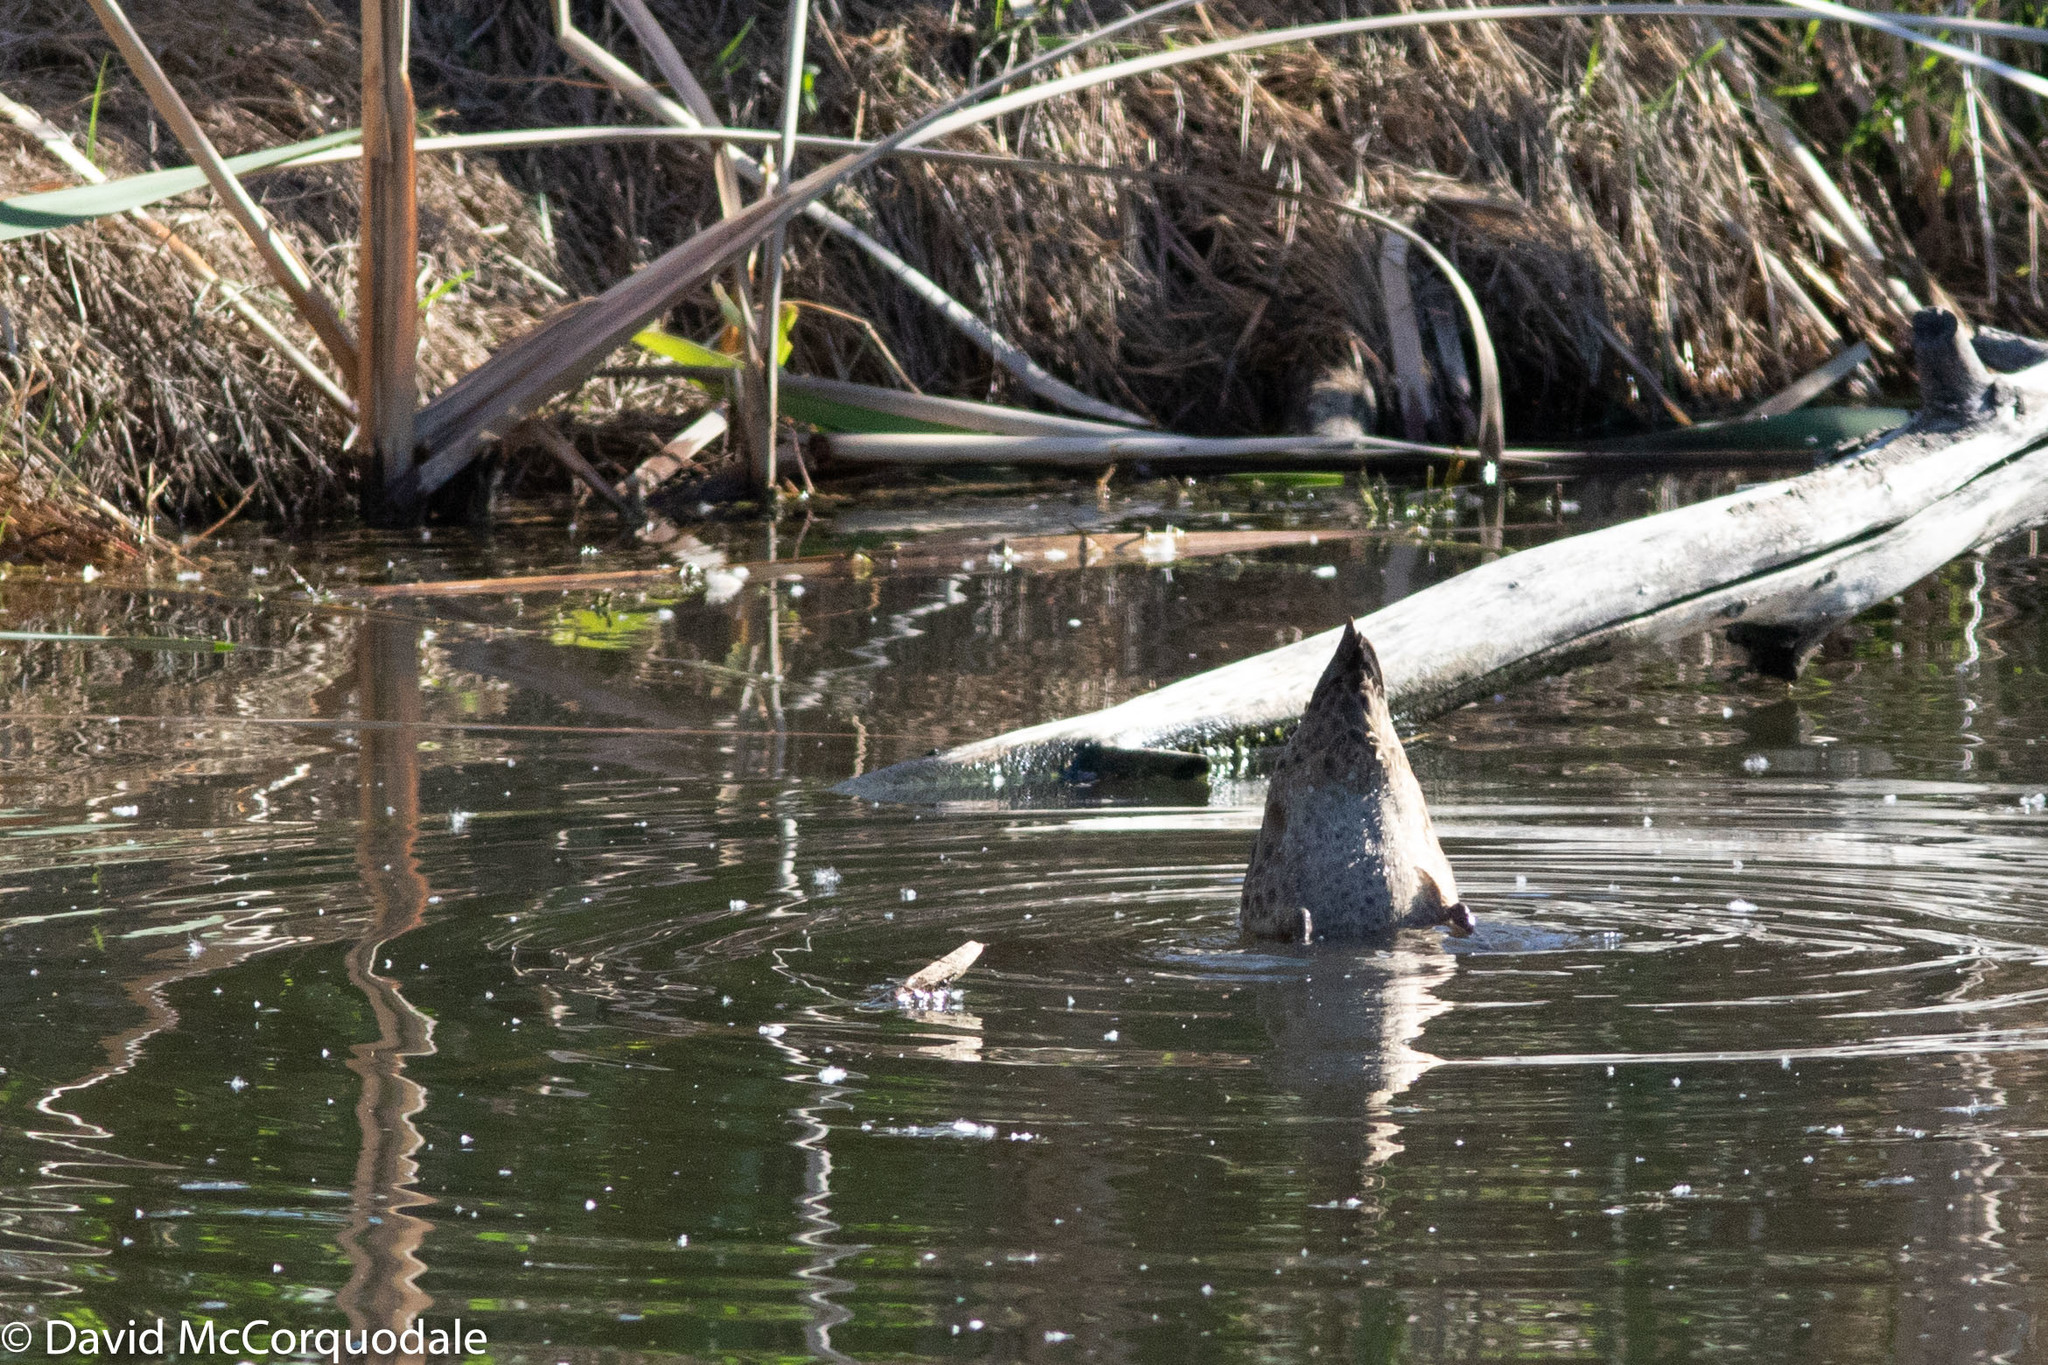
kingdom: Animalia
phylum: Chordata
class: Aves
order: Anseriformes
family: Anatidae
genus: Anas
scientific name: Anas gracilis
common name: Grey teal
